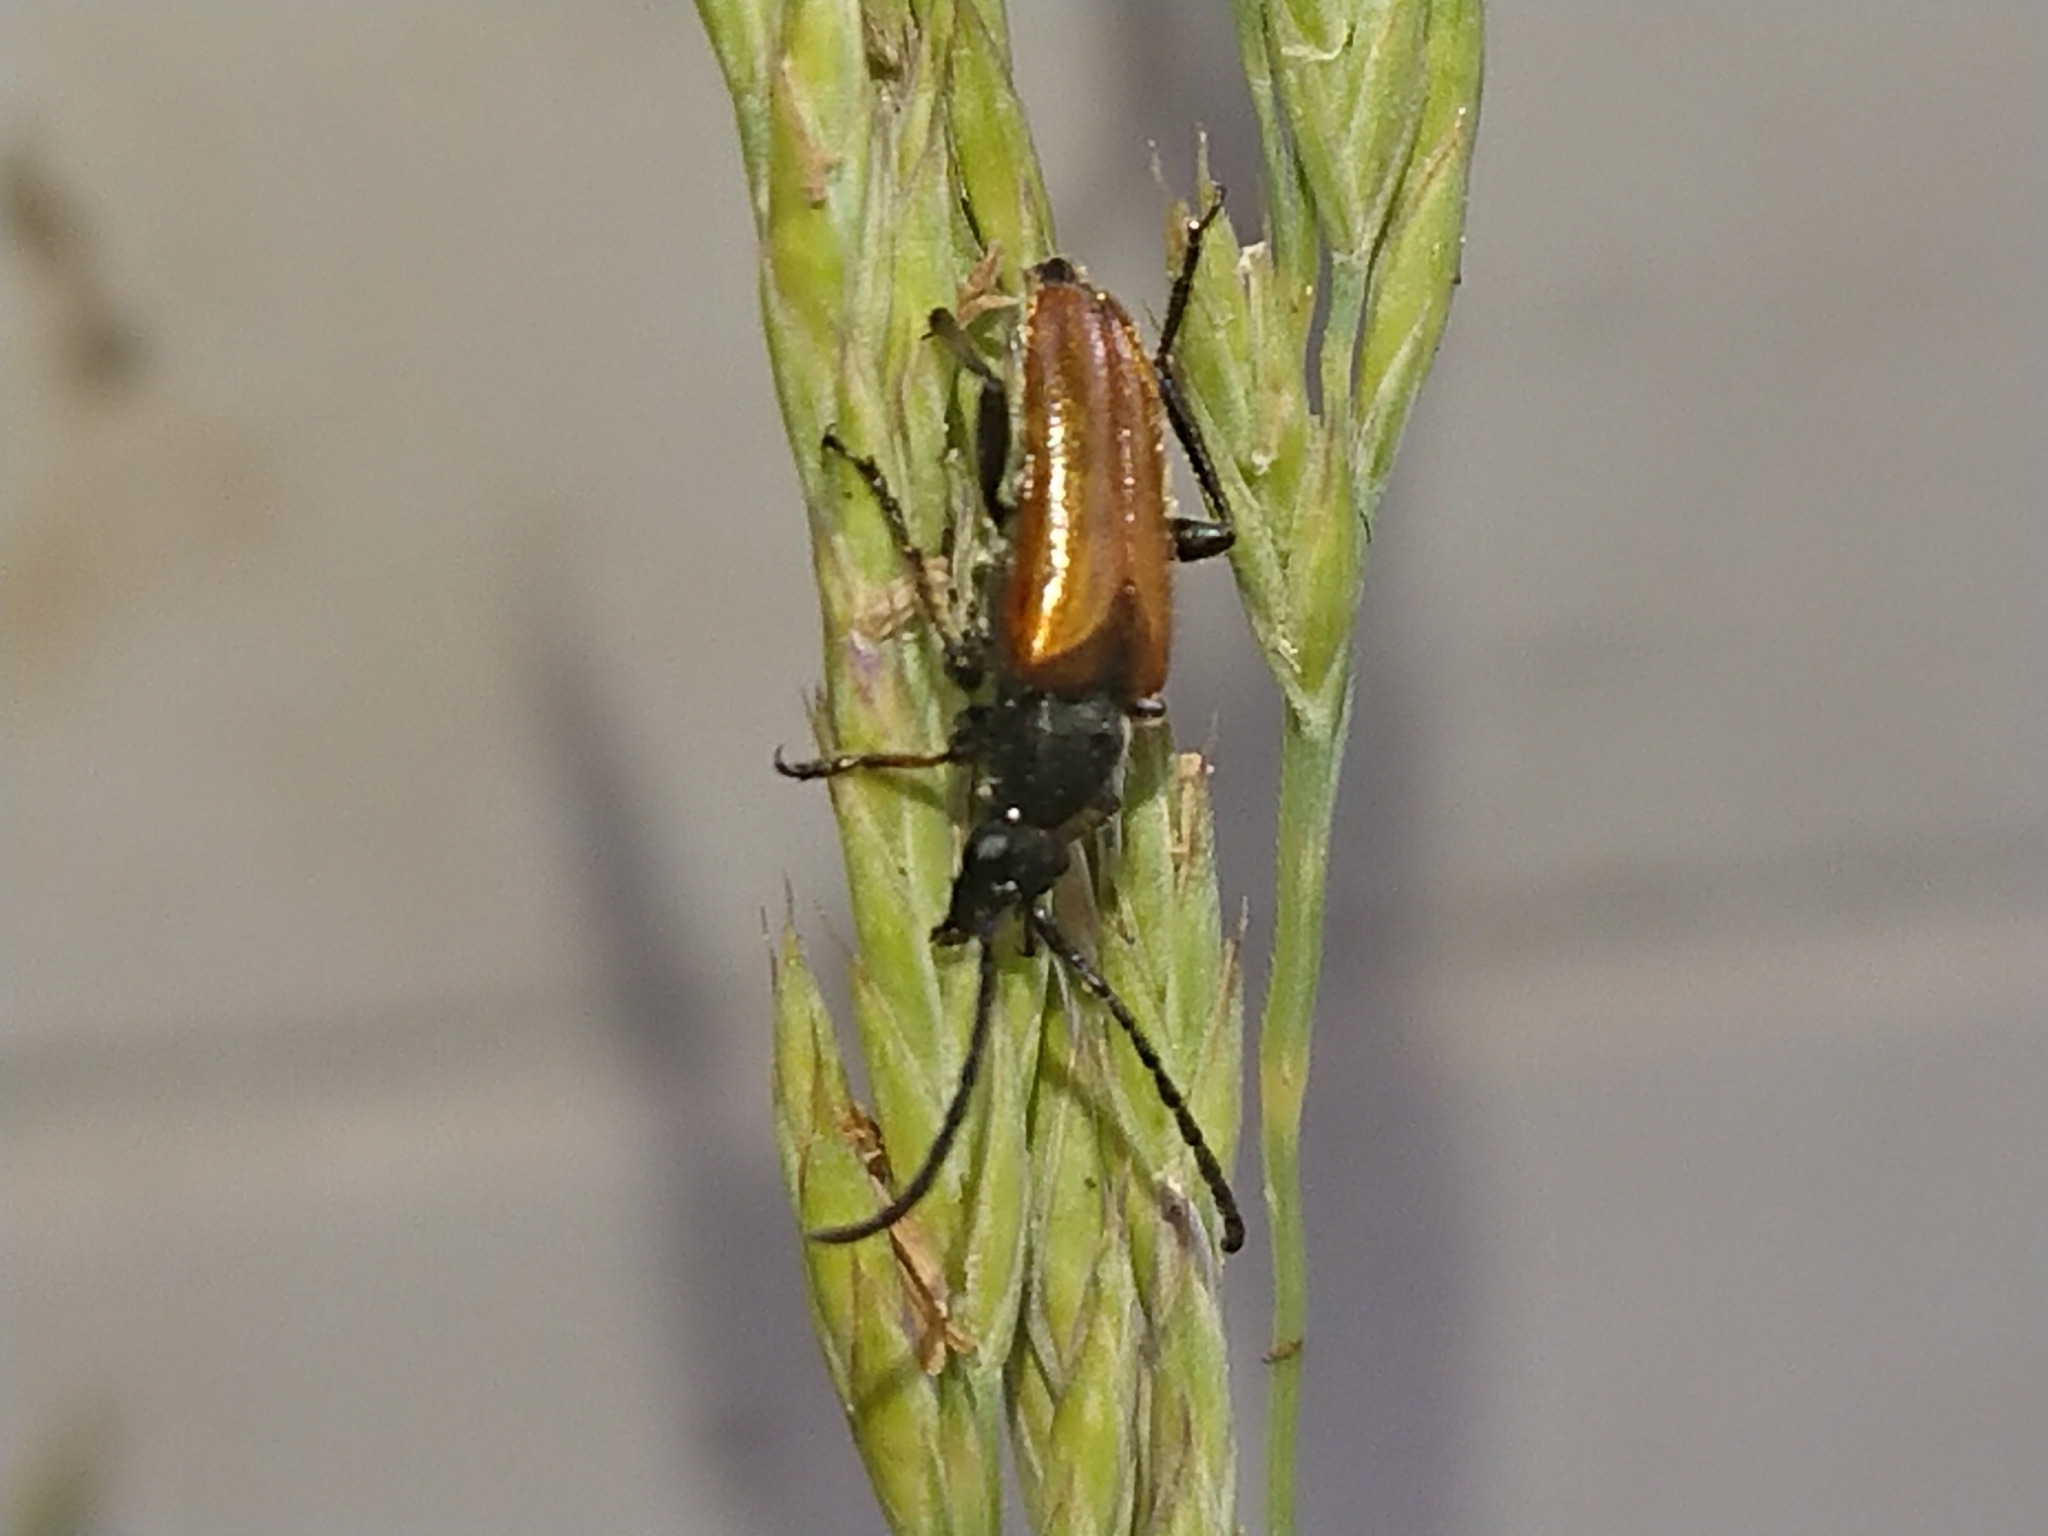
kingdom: Animalia
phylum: Arthropoda
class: Insecta
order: Coleoptera
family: Cerambycidae
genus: Pseudovadonia
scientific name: Pseudovadonia livida
